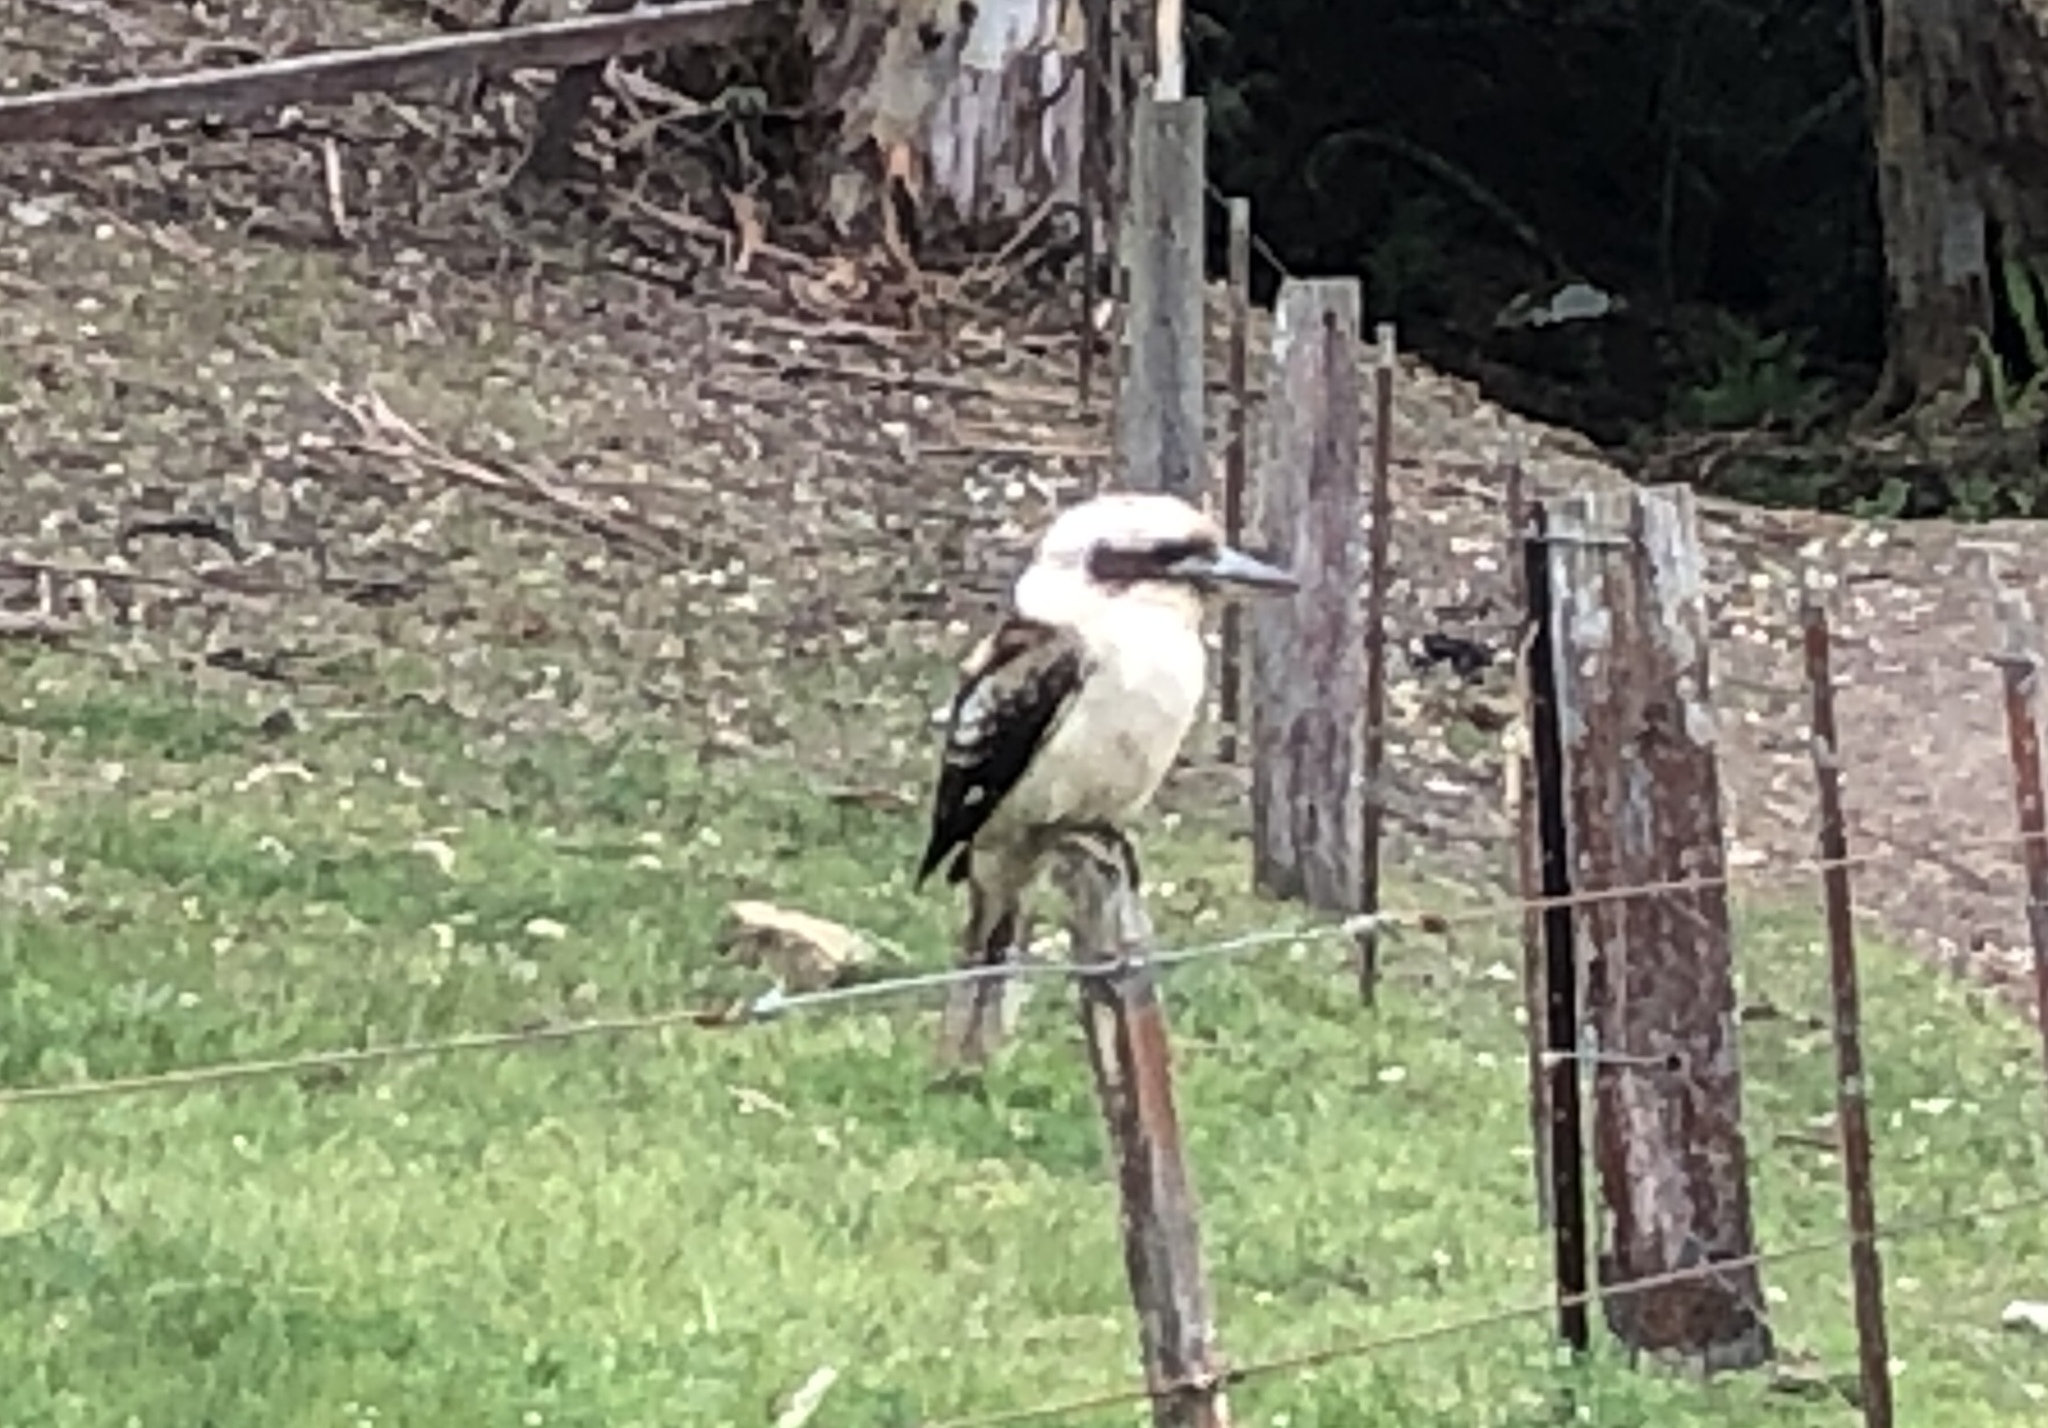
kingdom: Animalia
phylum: Chordata
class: Aves
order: Coraciiformes
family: Alcedinidae
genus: Dacelo
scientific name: Dacelo novaeguineae
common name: Laughing kookaburra
